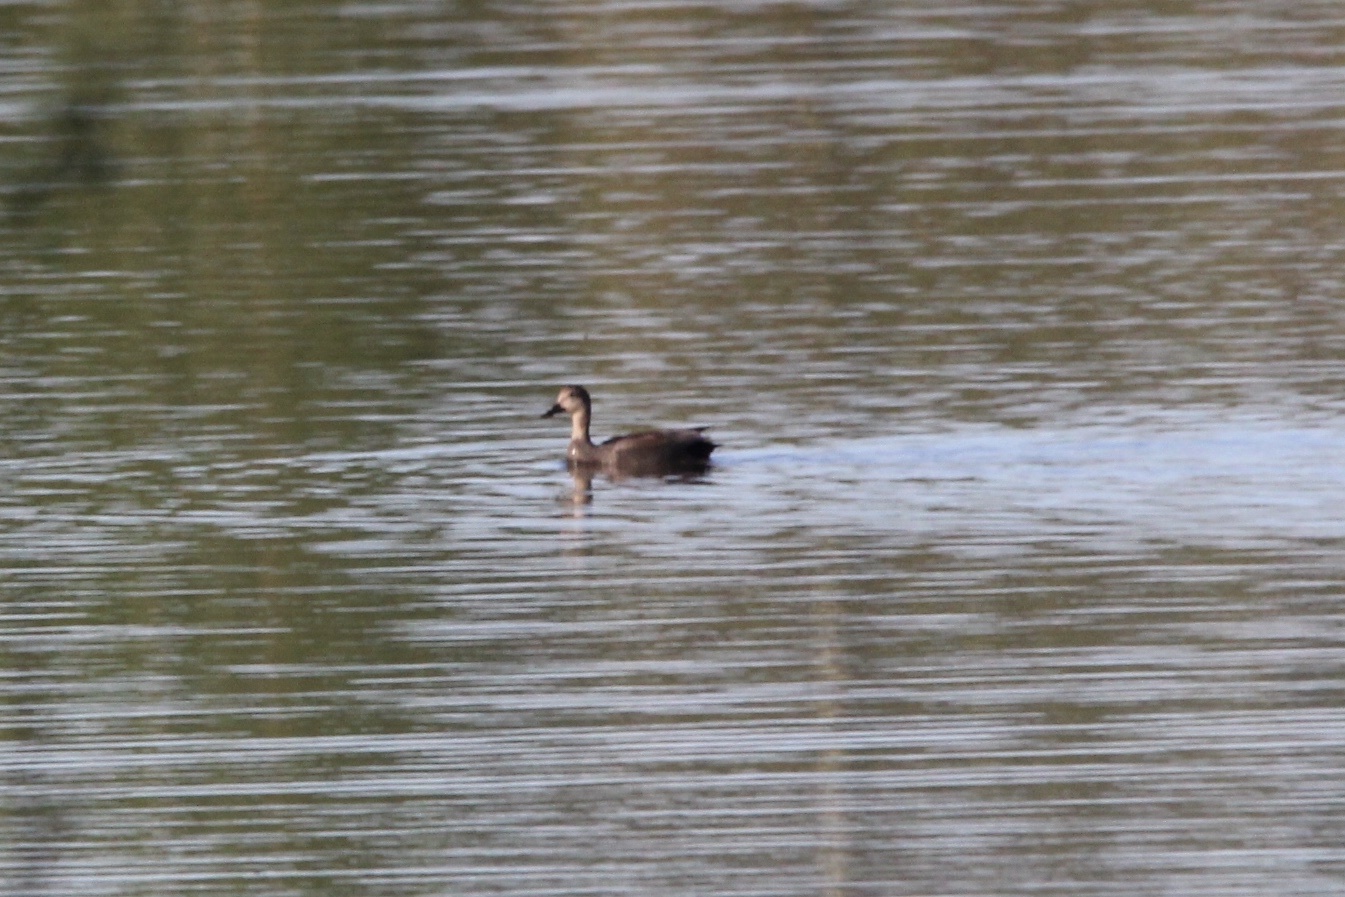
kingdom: Animalia
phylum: Chordata
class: Aves
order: Anseriformes
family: Anatidae
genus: Mareca
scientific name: Mareca strepera
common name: Gadwall
